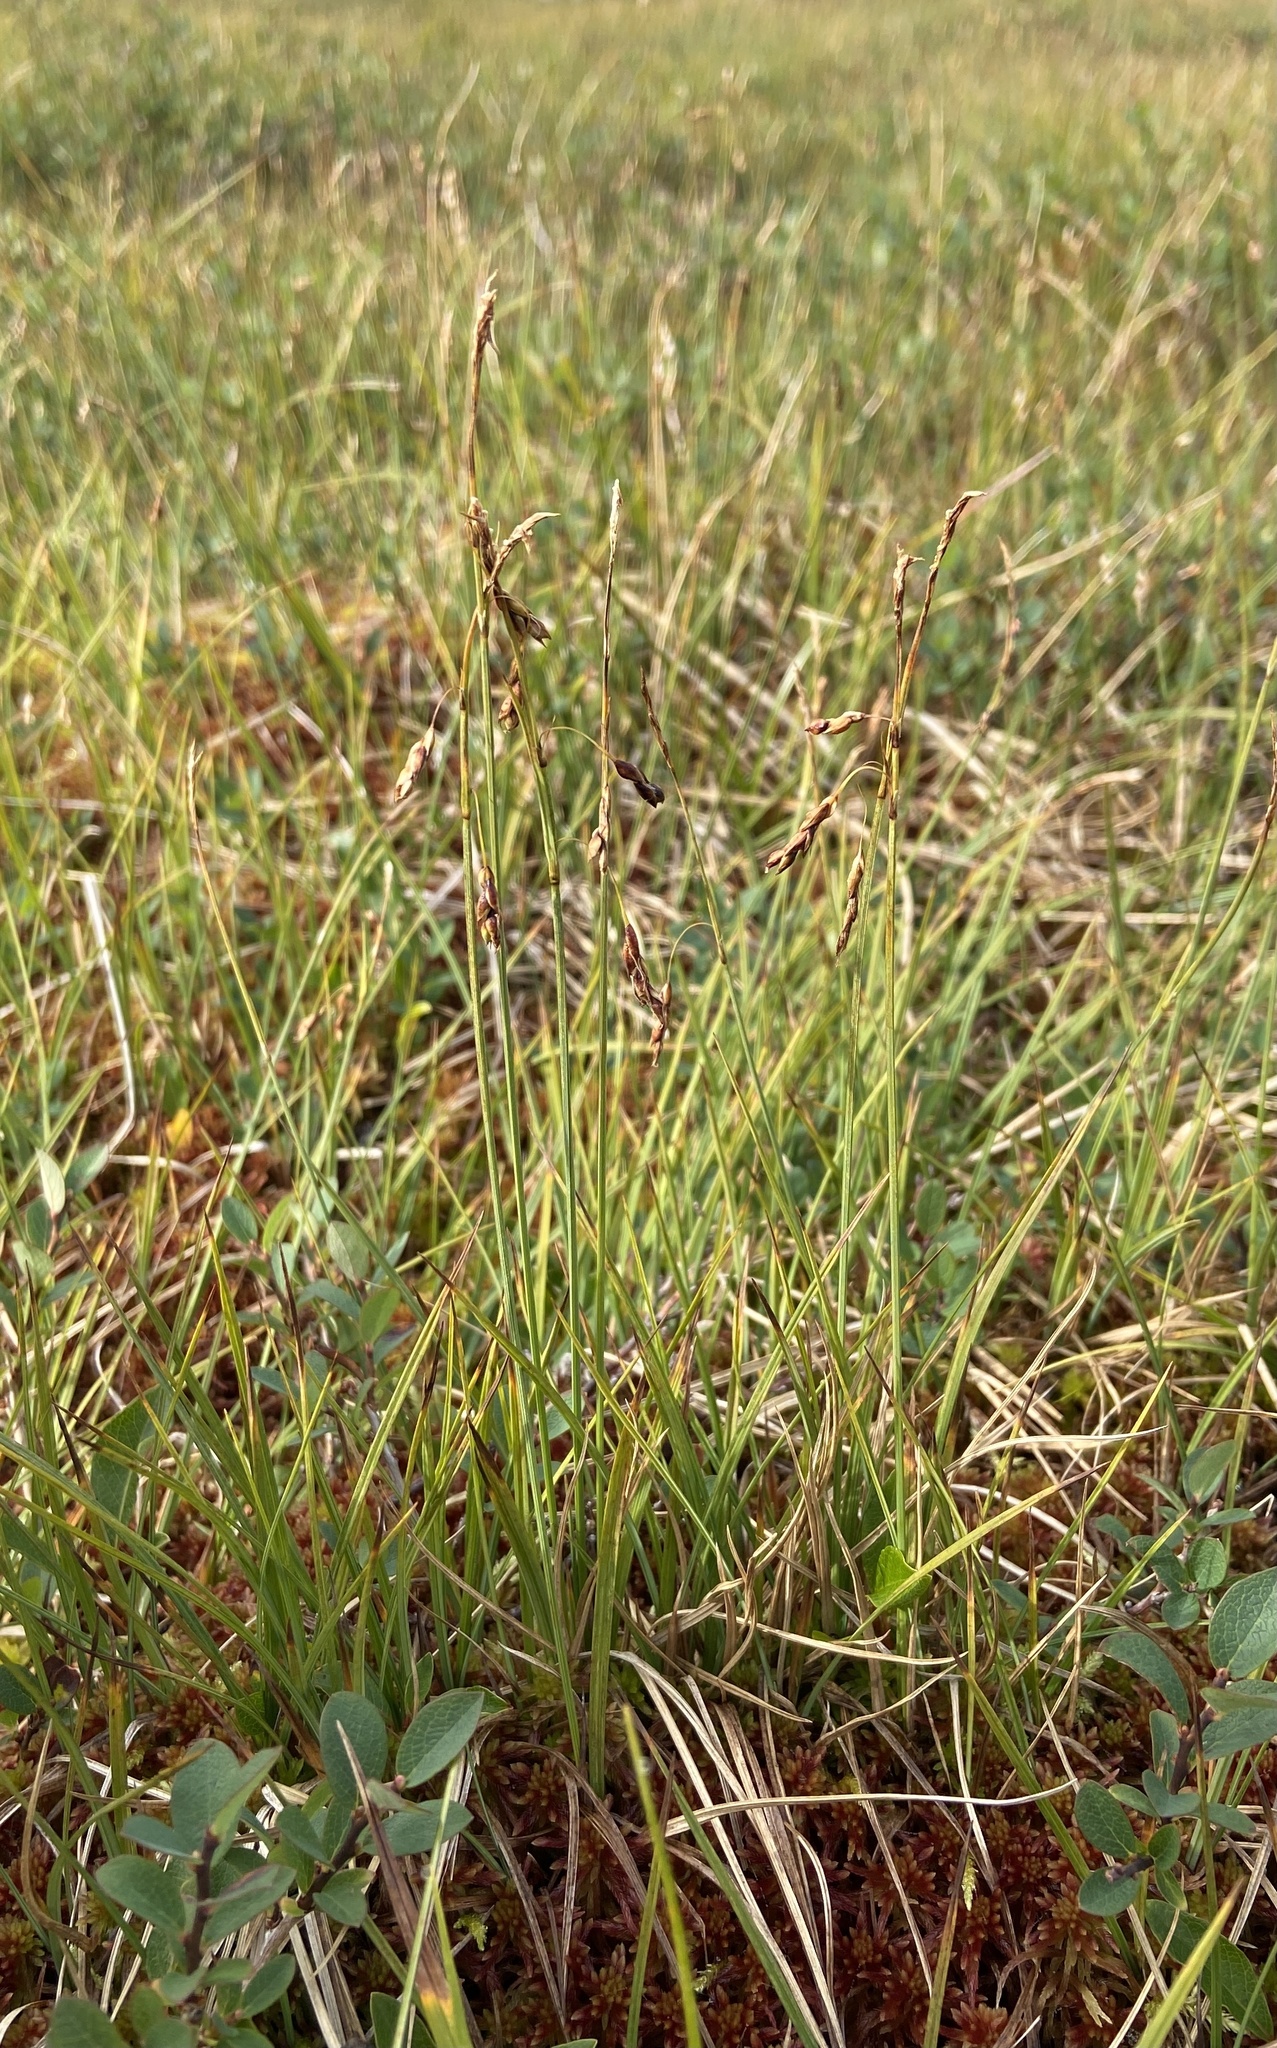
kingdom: Plantae
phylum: Tracheophyta
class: Liliopsida
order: Poales
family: Cyperaceae
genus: Carex
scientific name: Carex rariflora
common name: Loose-flowered alpine sedge
